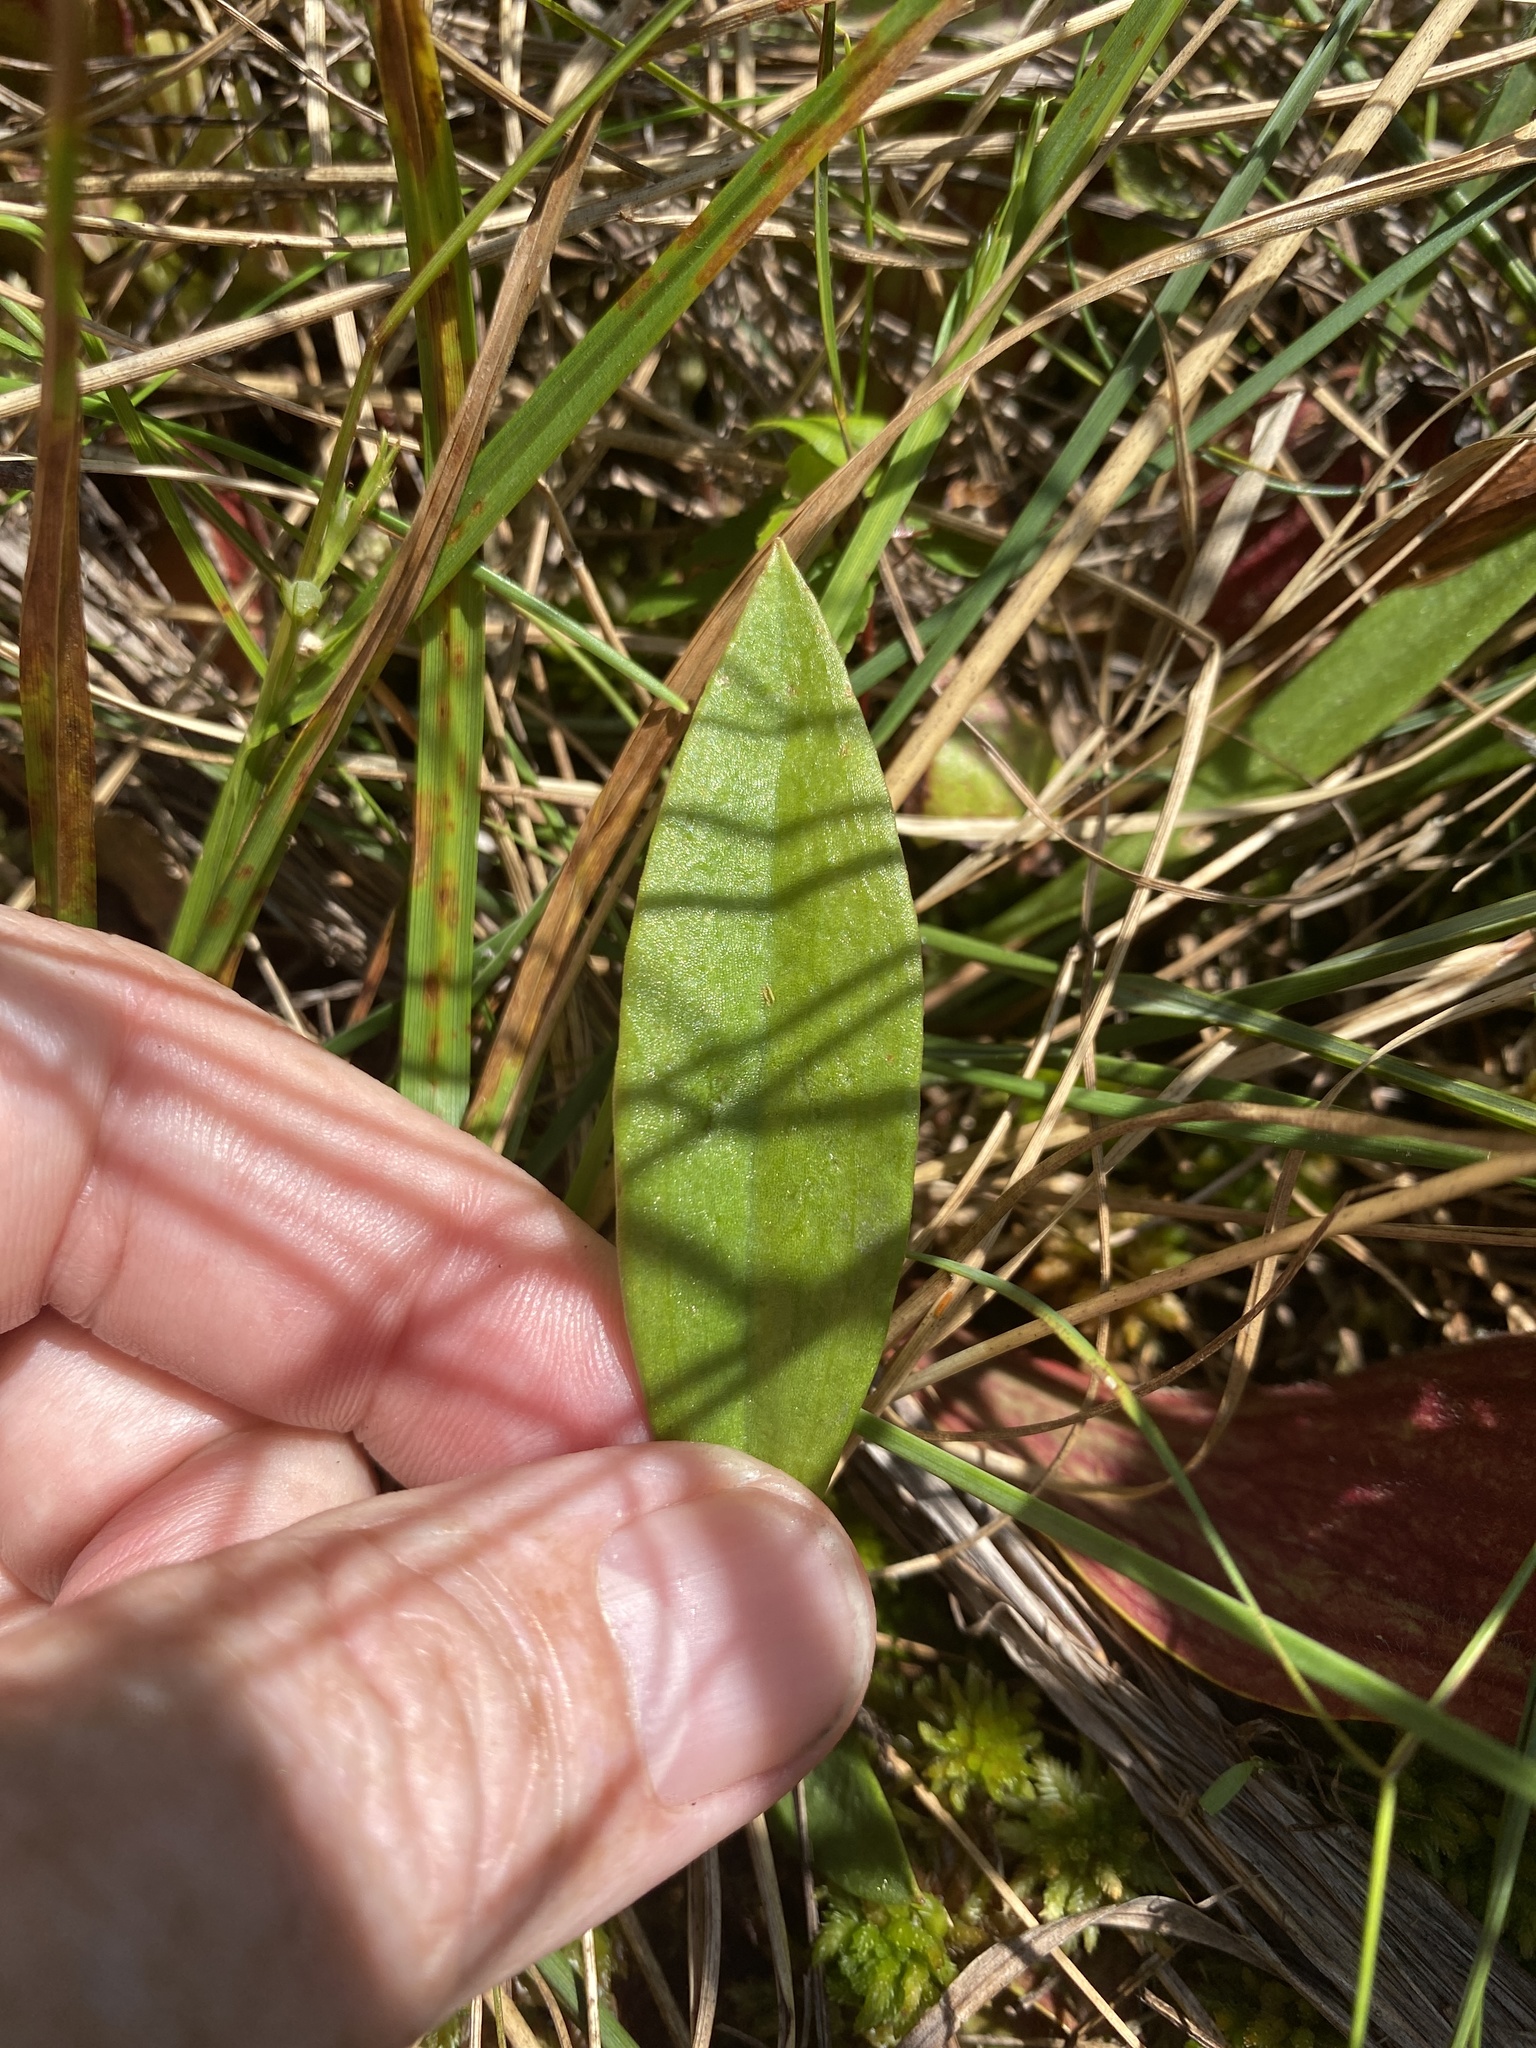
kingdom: Plantae
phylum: Tracheophyta
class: Liliopsida
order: Asparagales
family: Orchidaceae
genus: Pogonia
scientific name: Pogonia ophioglossoides
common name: Rose pogonia
